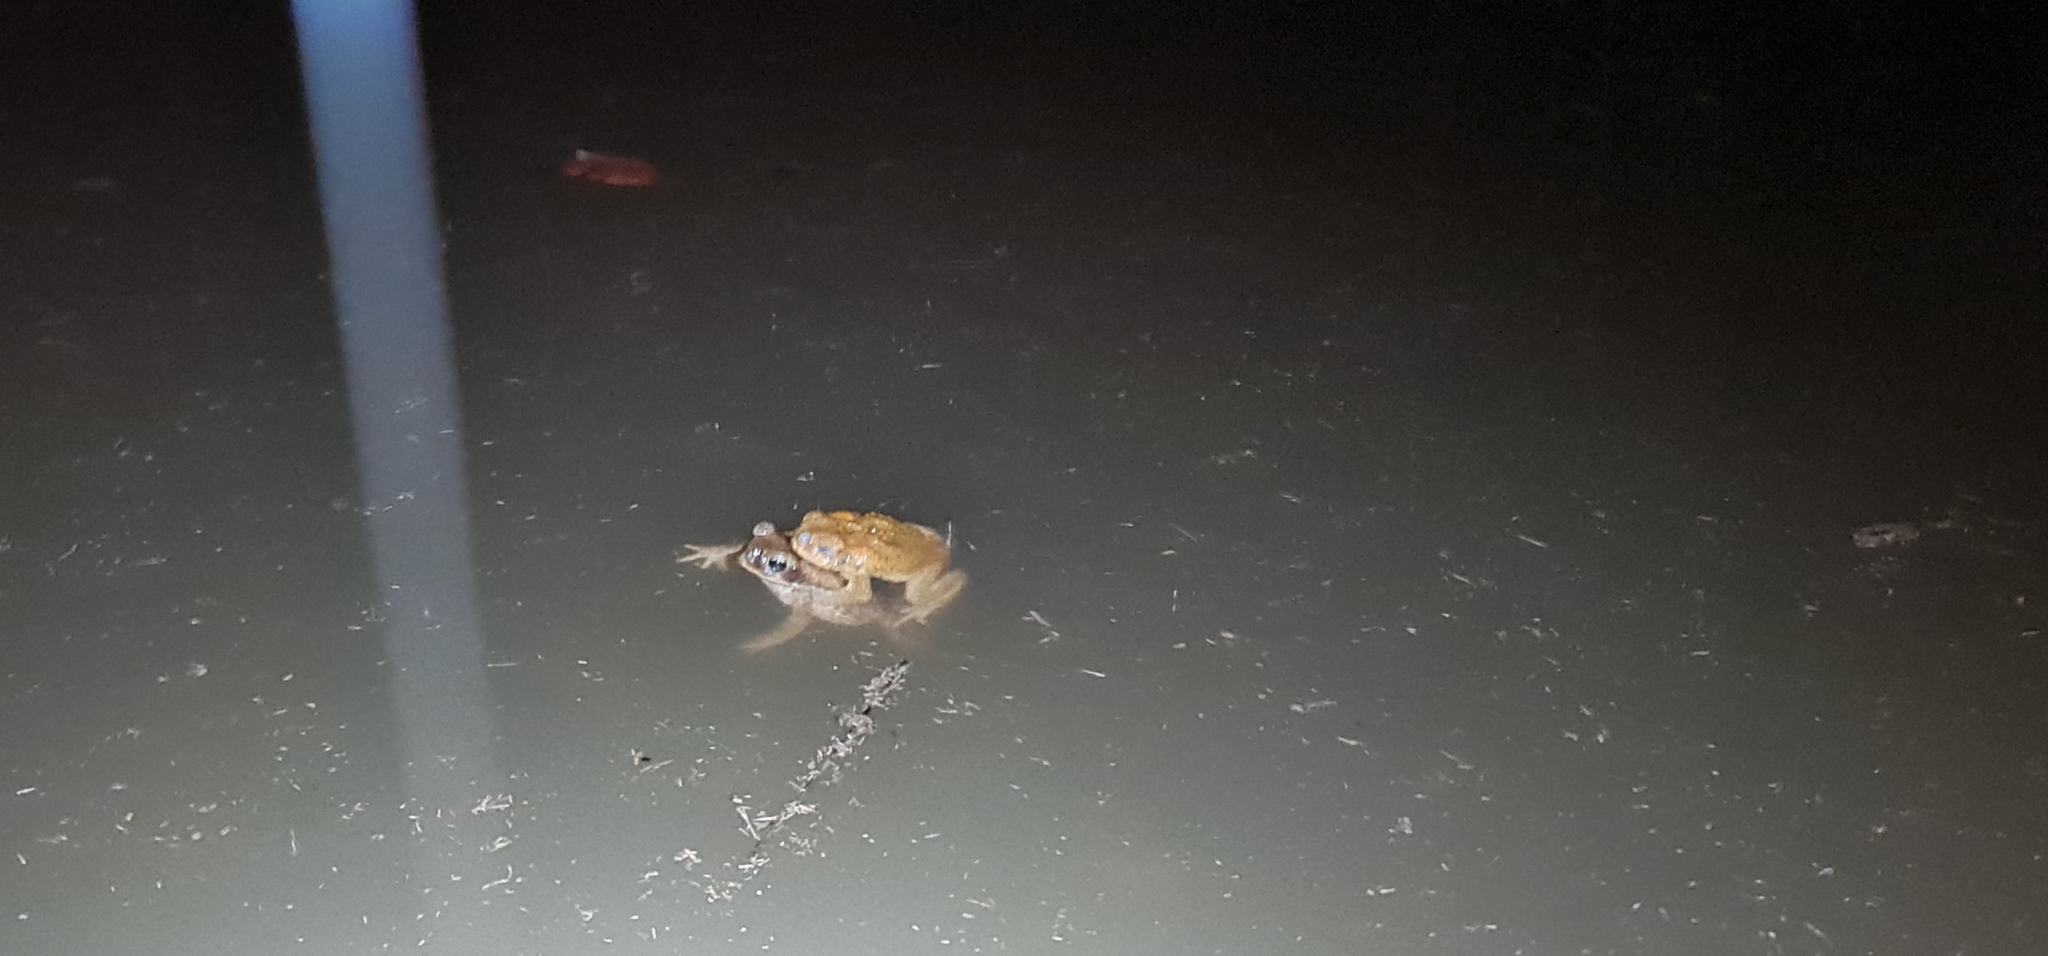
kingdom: Animalia
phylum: Chordata
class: Amphibia
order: Anura
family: Bufonidae
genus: Rhinella
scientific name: Rhinella marina
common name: Cane toad
